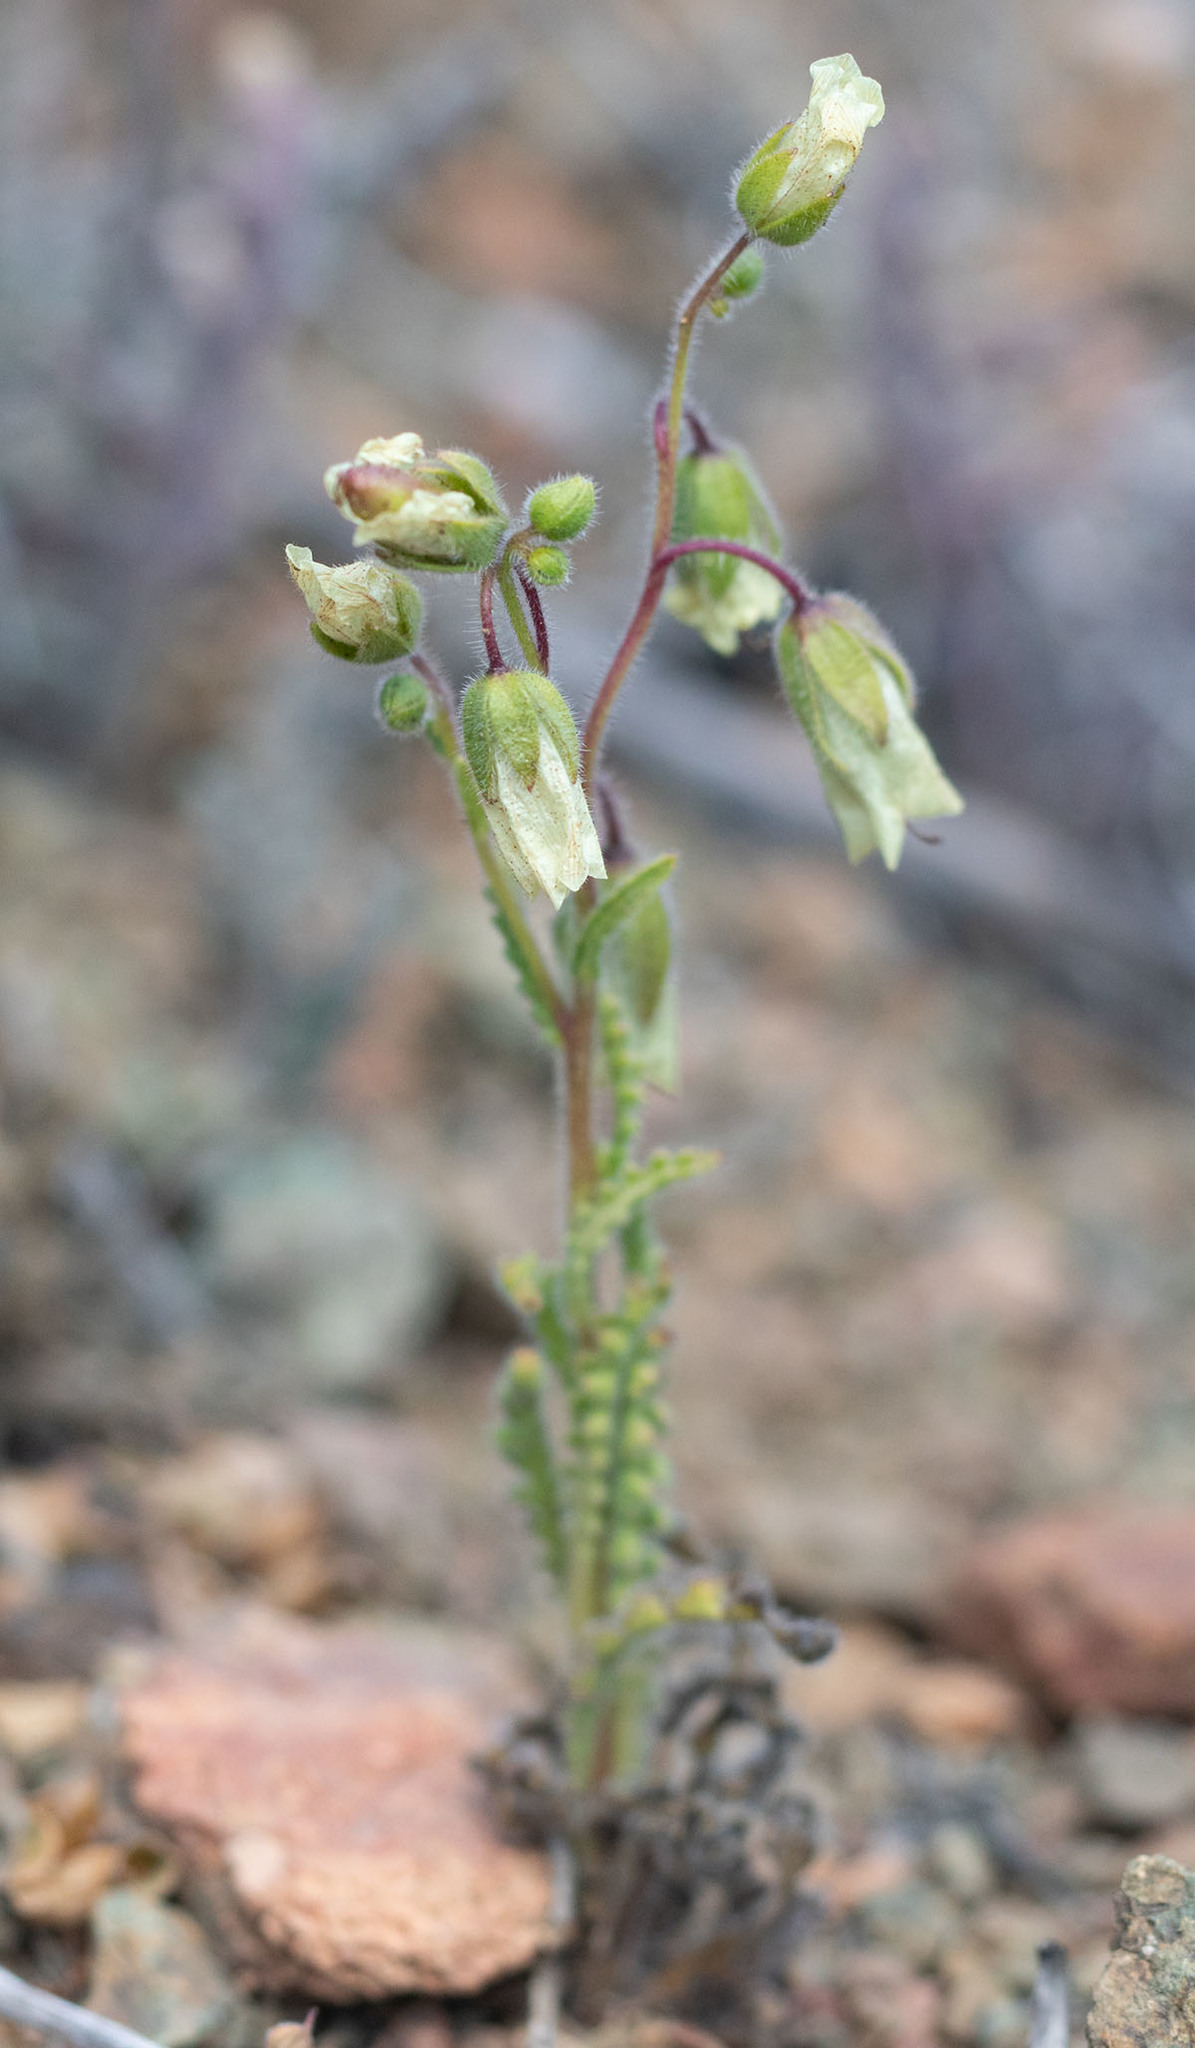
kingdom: Plantae
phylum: Tracheophyta
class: Magnoliopsida
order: Boraginales
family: Hydrophyllaceae
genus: Emmenanthe
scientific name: Emmenanthe penduliflora
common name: Whispering-bells
